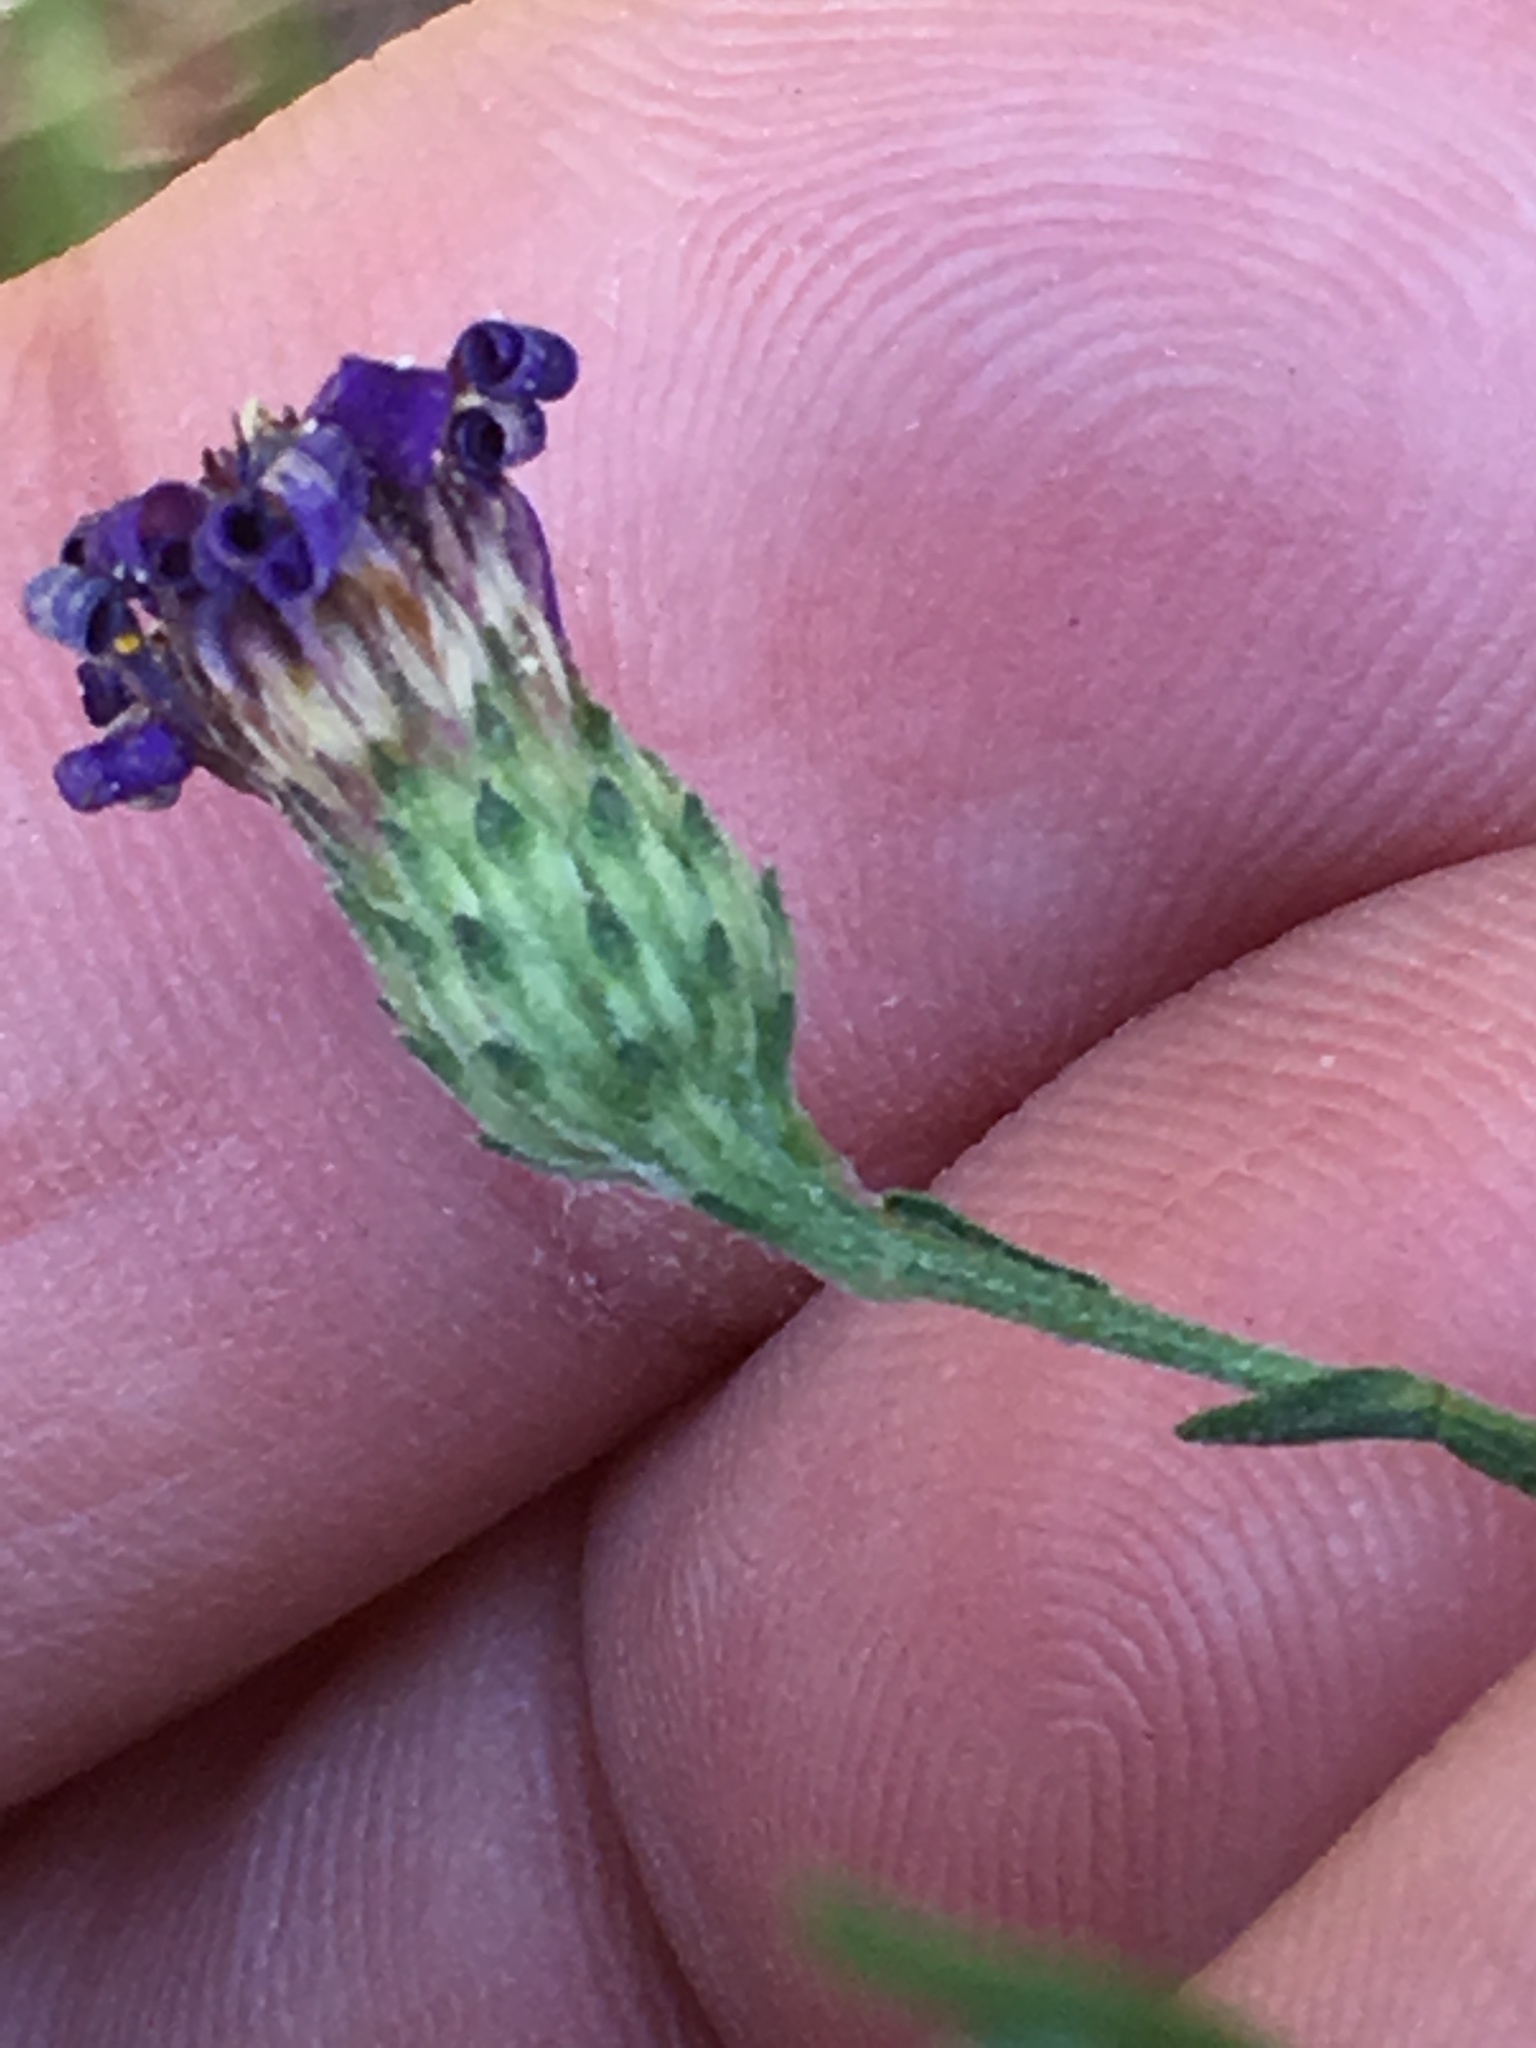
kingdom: Plantae
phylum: Tracheophyta
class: Magnoliopsida
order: Asterales
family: Asteraceae
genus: Symphyotrichum
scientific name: Symphyotrichum patens
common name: Late purple aster
